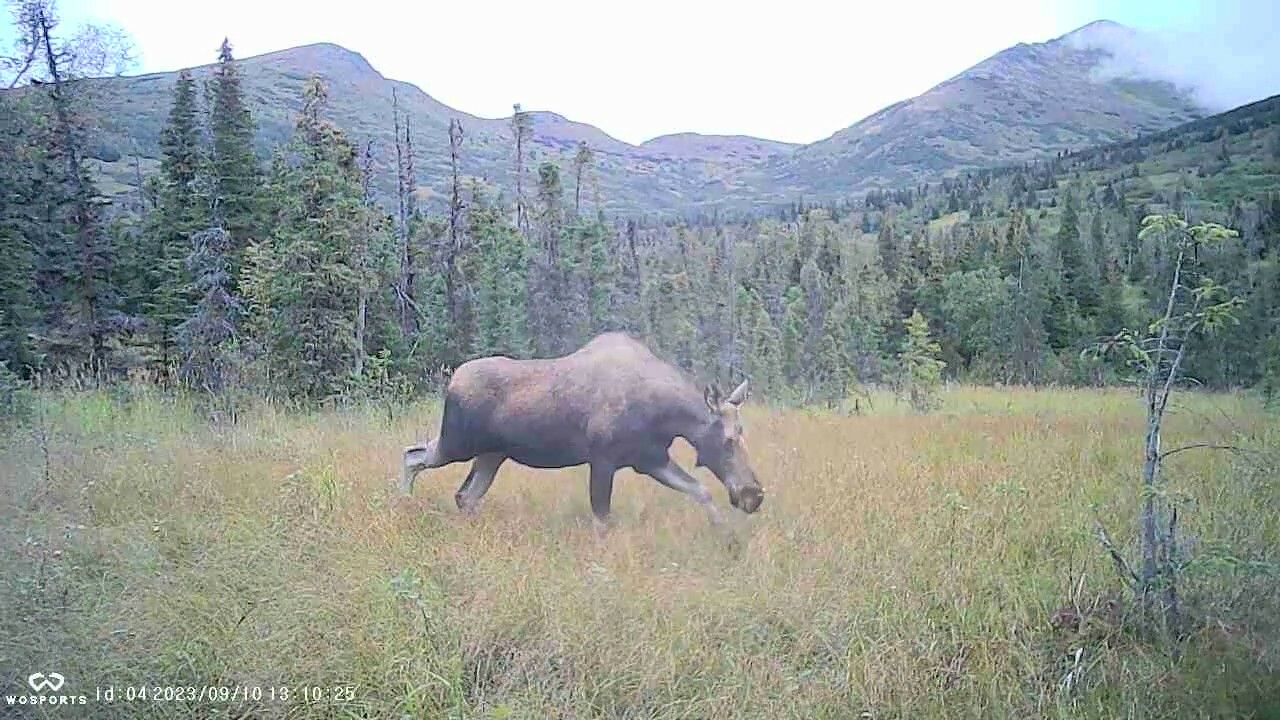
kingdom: Animalia
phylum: Chordata
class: Mammalia
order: Artiodactyla
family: Cervidae
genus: Alces
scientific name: Alces alces
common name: Moose
